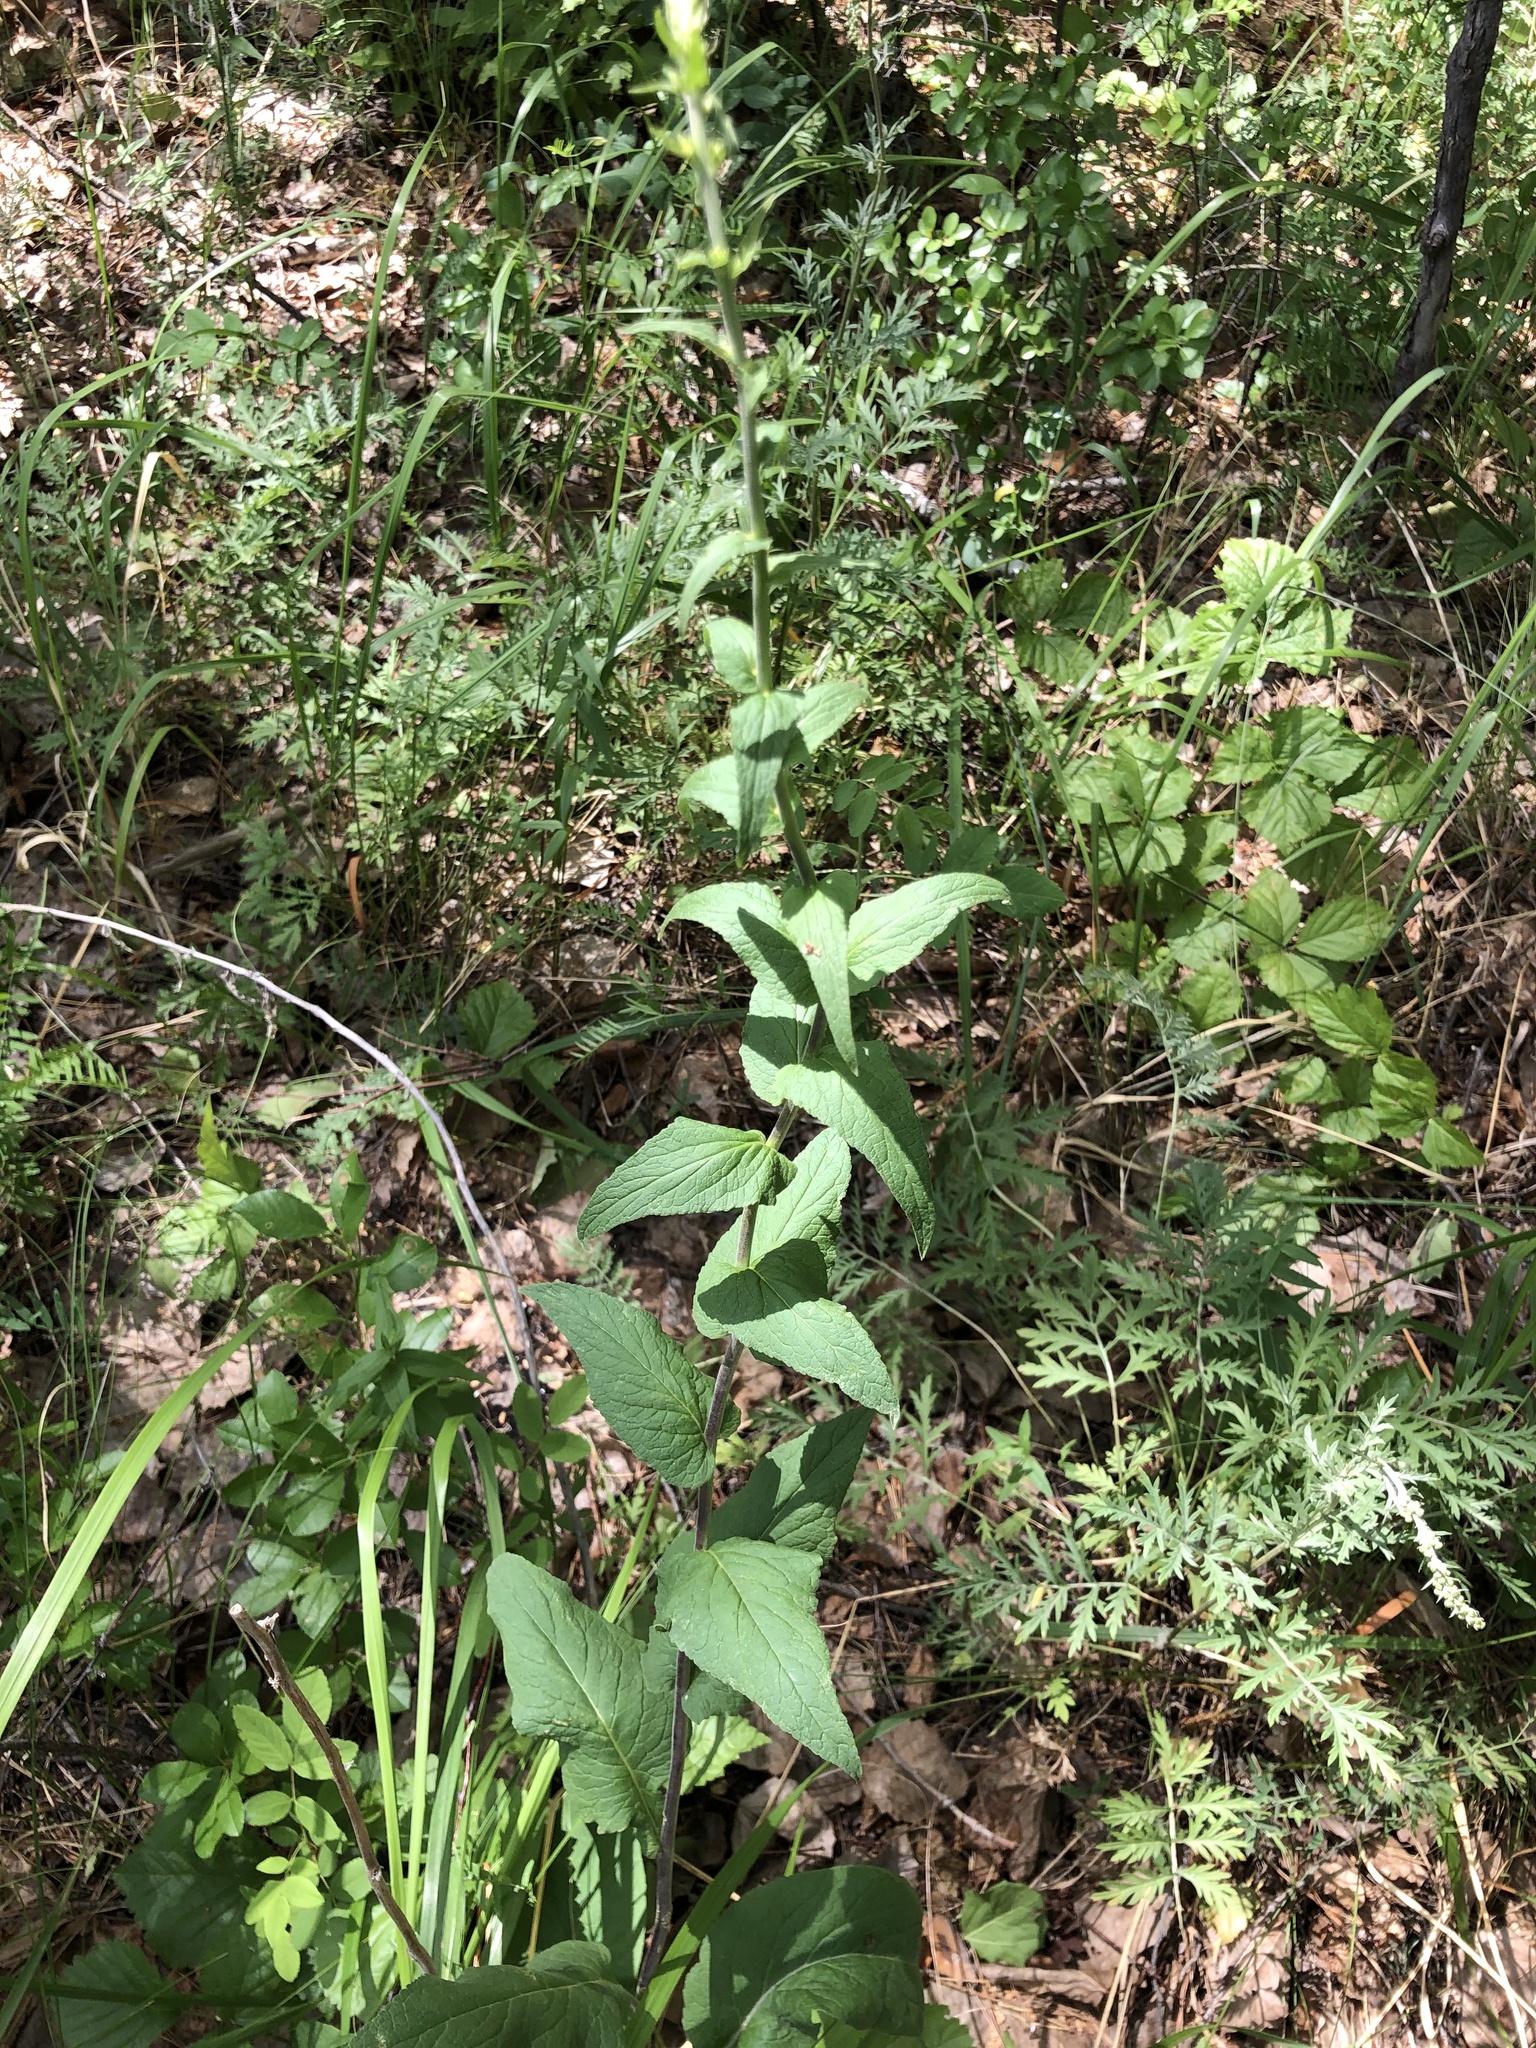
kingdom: Plantae
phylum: Tracheophyta
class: Magnoliopsida
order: Asterales
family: Campanulaceae
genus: Campanula
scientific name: Campanula bononiensis
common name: Pale bellflower
